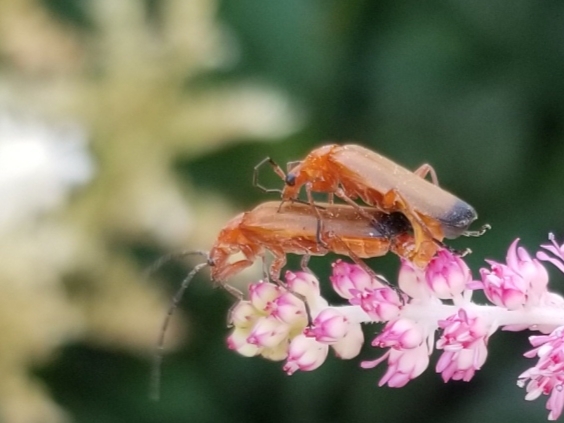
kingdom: Animalia
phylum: Arthropoda
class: Insecta
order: Coleoptera
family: Cantharidae
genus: Rhagonycha
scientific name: Rhagonycha fulva
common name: Common red soldier beetle
